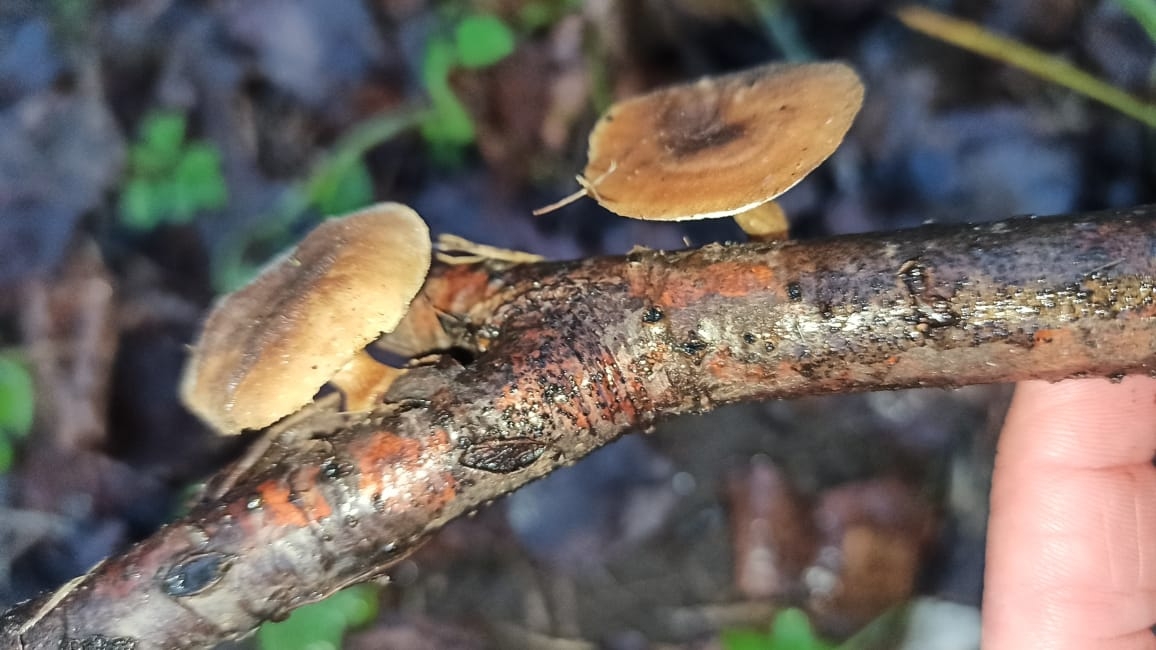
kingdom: Fungi
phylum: Basidiomycota
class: Agaricomycetes
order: Polyporales
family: Polyporaceae
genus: Lentinus
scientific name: Lentinus brumalis
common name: Winter polypore
